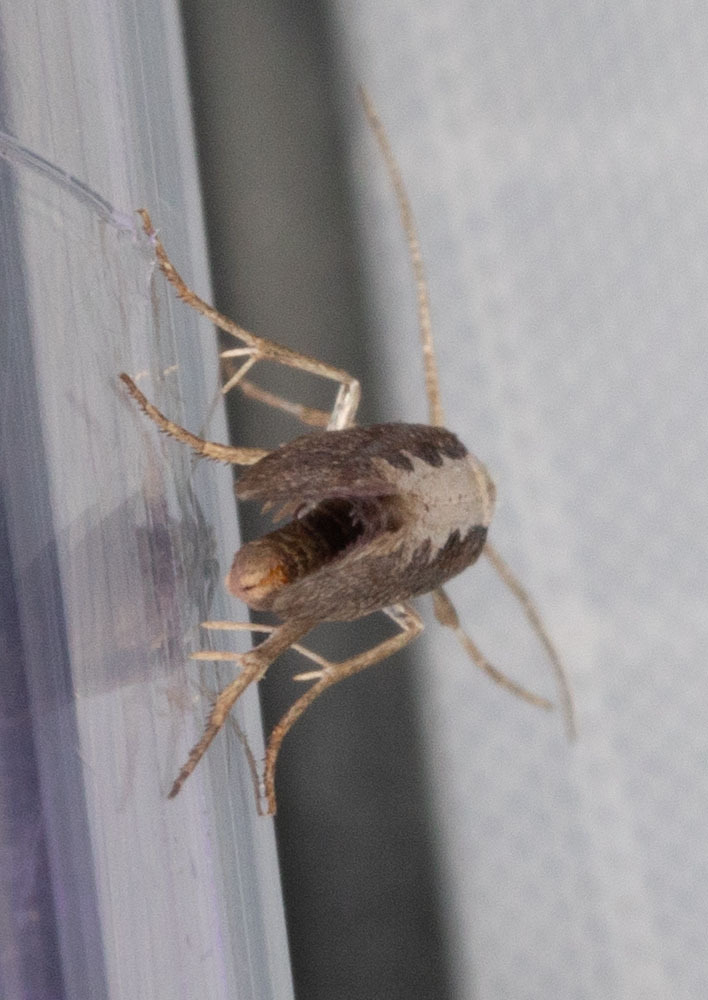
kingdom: Animalia
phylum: Arthropoda
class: Insecta
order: Lepidoptera
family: Plutellidae
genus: Plutella
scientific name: Plutella xylostella
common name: Diamond-back moth
